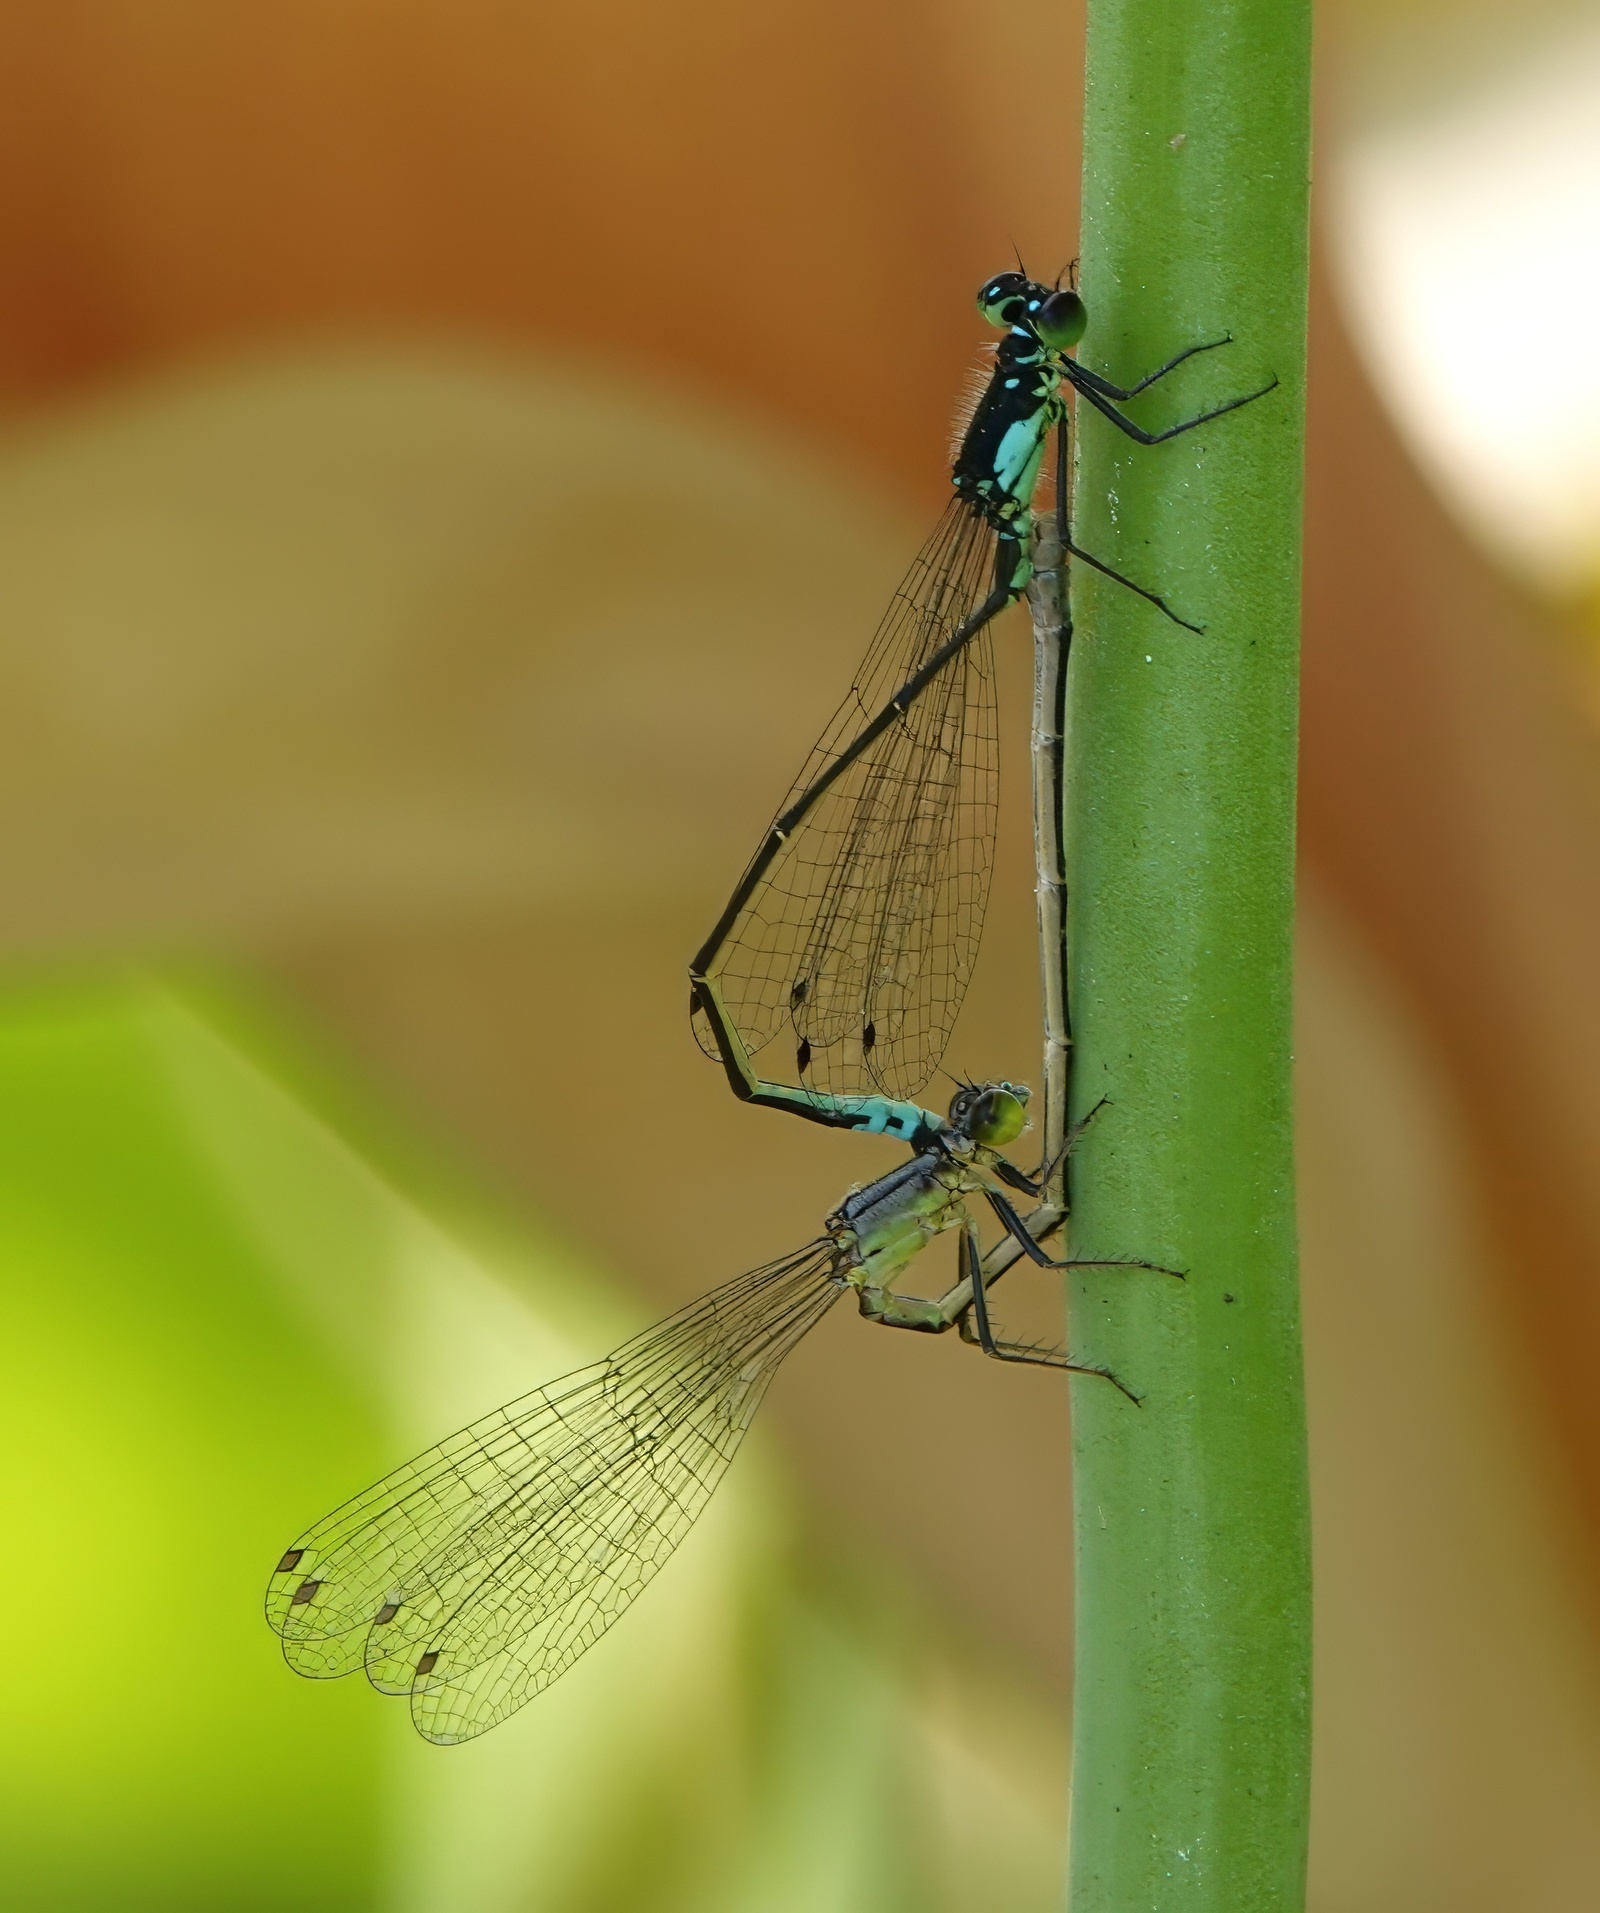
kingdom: Animalia
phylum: Arthropoda
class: Insecta
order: Odonata
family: Coenagrionidae
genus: Ischnura
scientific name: Ischnura cervula
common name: Pacific forktail
